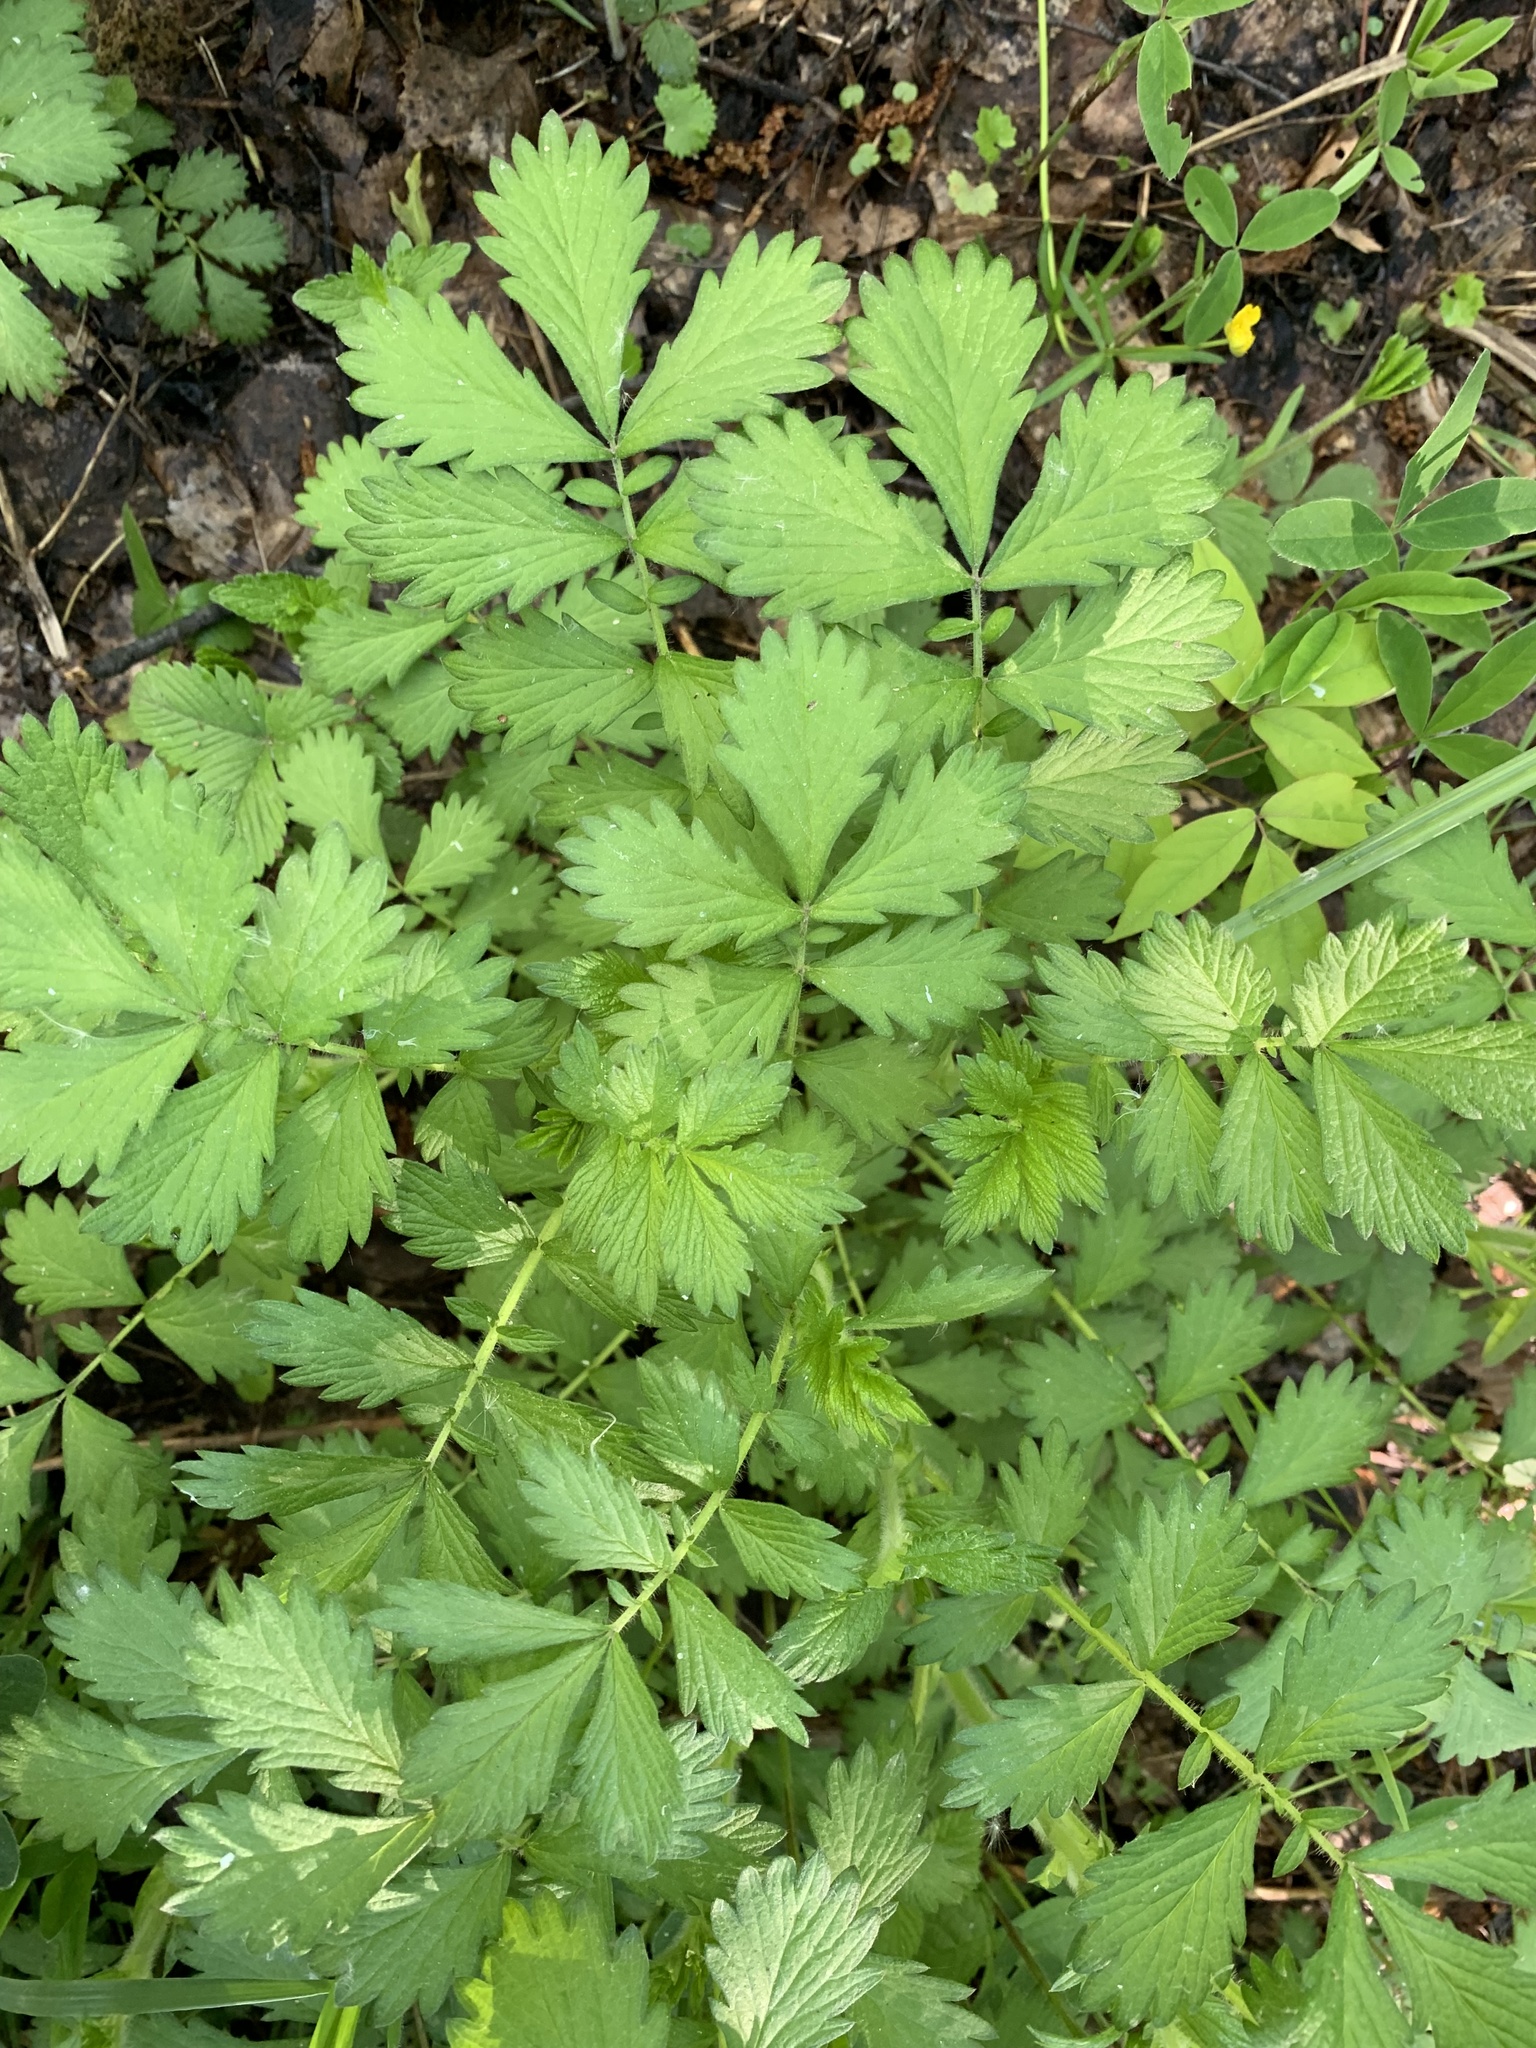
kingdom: Plantae
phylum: Tracheophyta
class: Magnoliopsida
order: Rosales
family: Rosaceae
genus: Agrimonia
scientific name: Agrimonia pilosa
